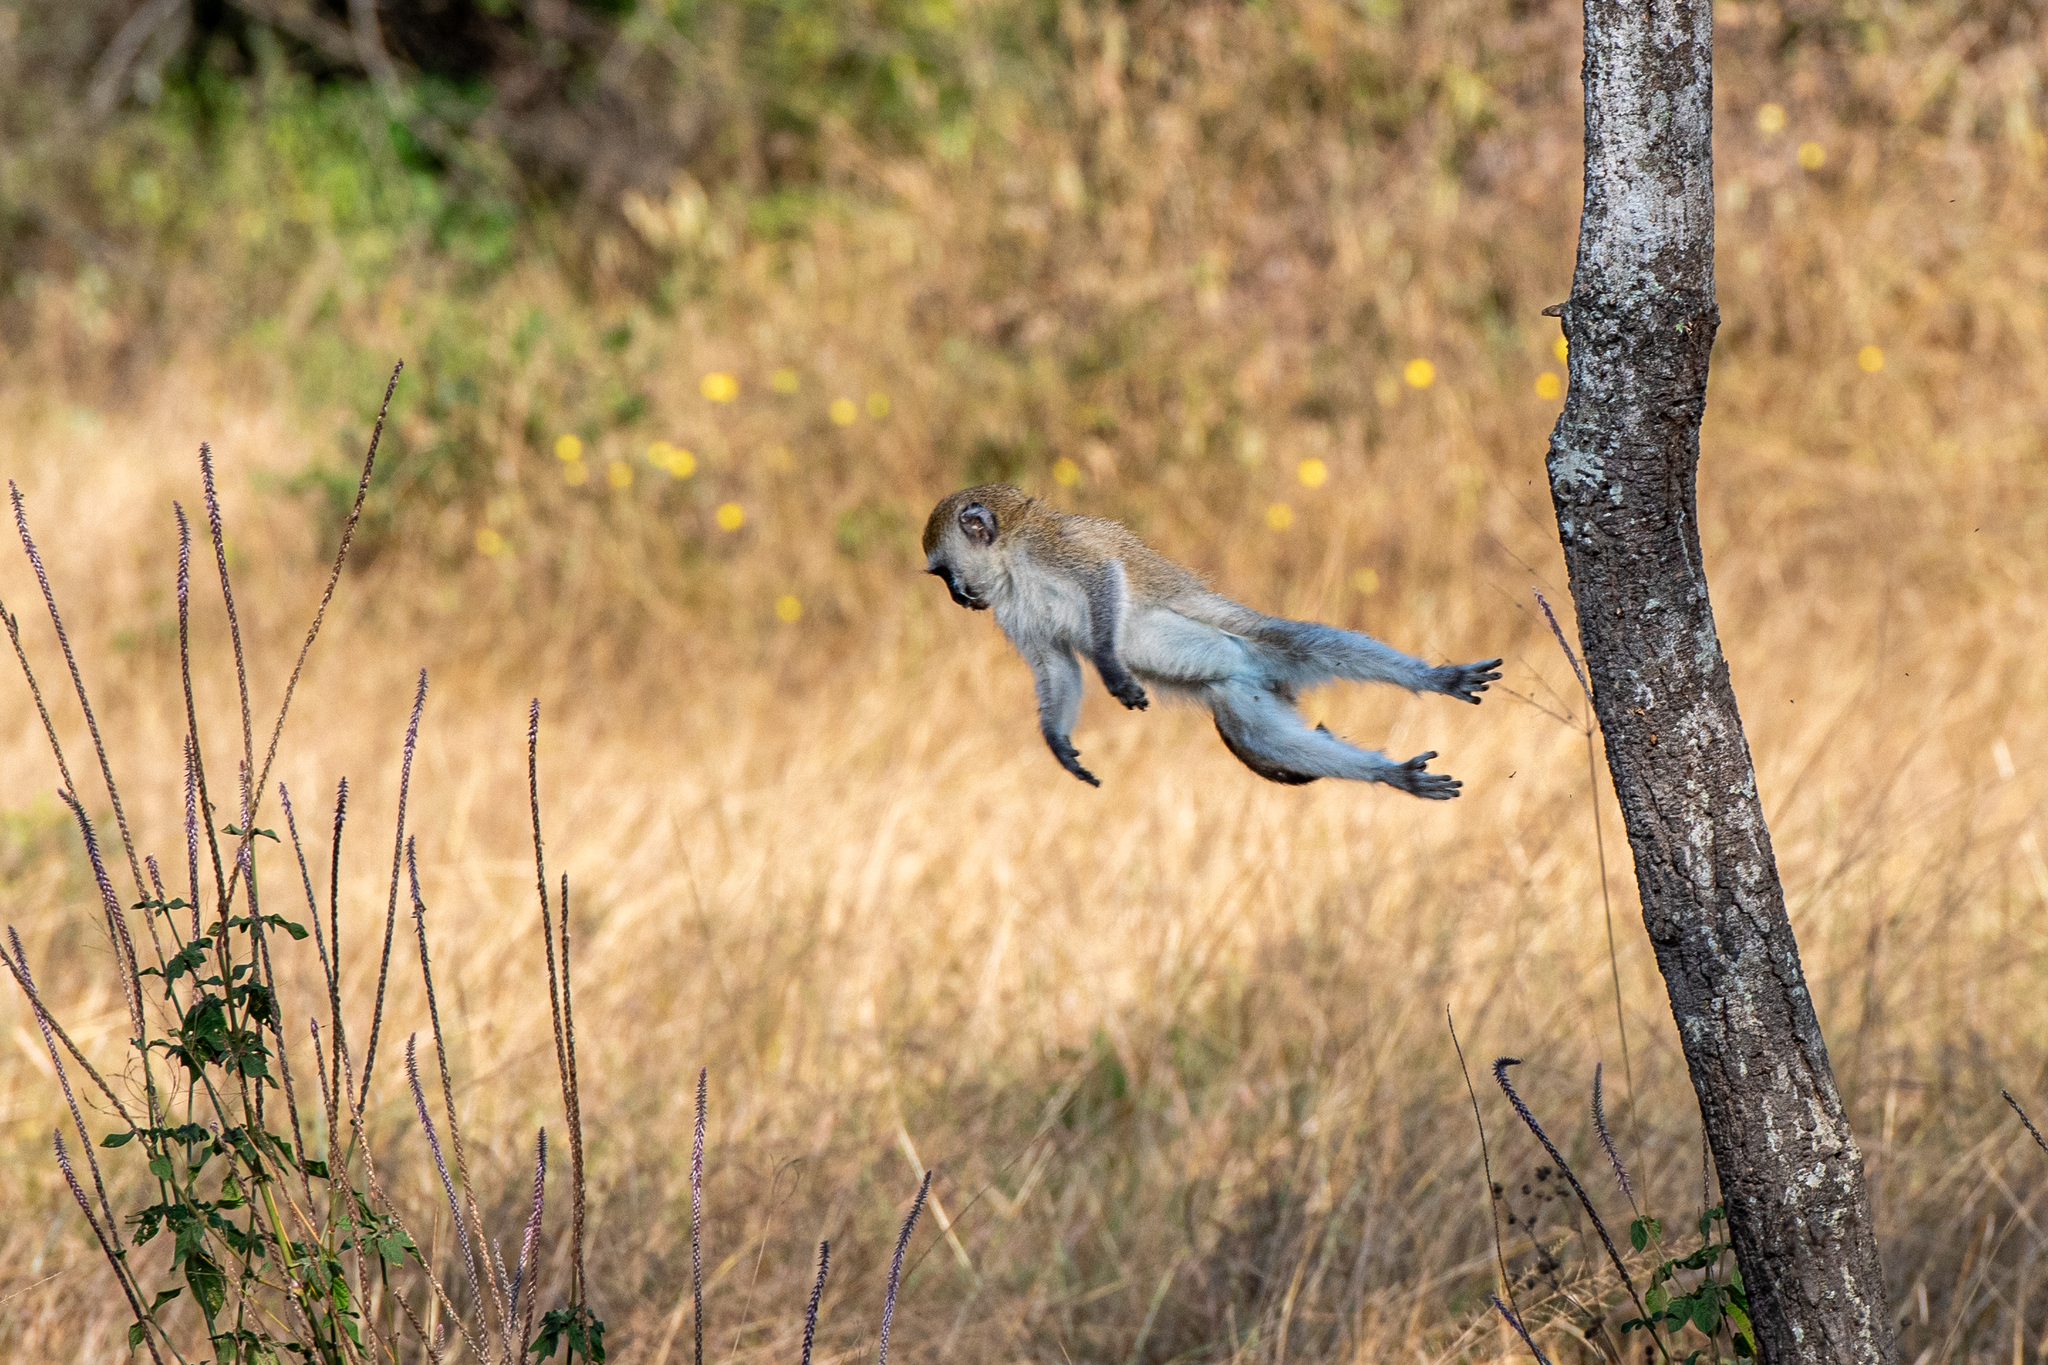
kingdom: Animalia
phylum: Chordata
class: Mammalia
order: Primates
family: Cercopithecidae
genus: Chlorocebus
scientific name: Chlorocebus pygerythrus
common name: Vervet monkey
